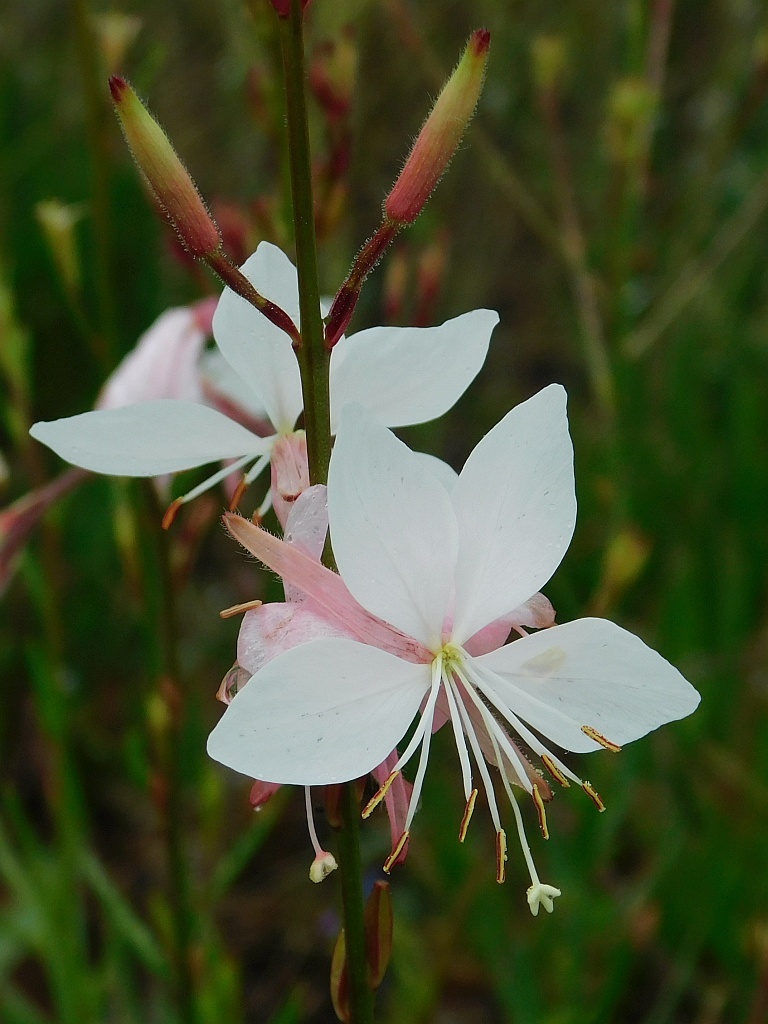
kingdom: Plantae
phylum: Tracheophyta
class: Magnoliopsida
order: Myrtales
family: Onagraceae
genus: Oenothera
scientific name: Oenothera lindheimeri
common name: Lindheimer's beeblossom
